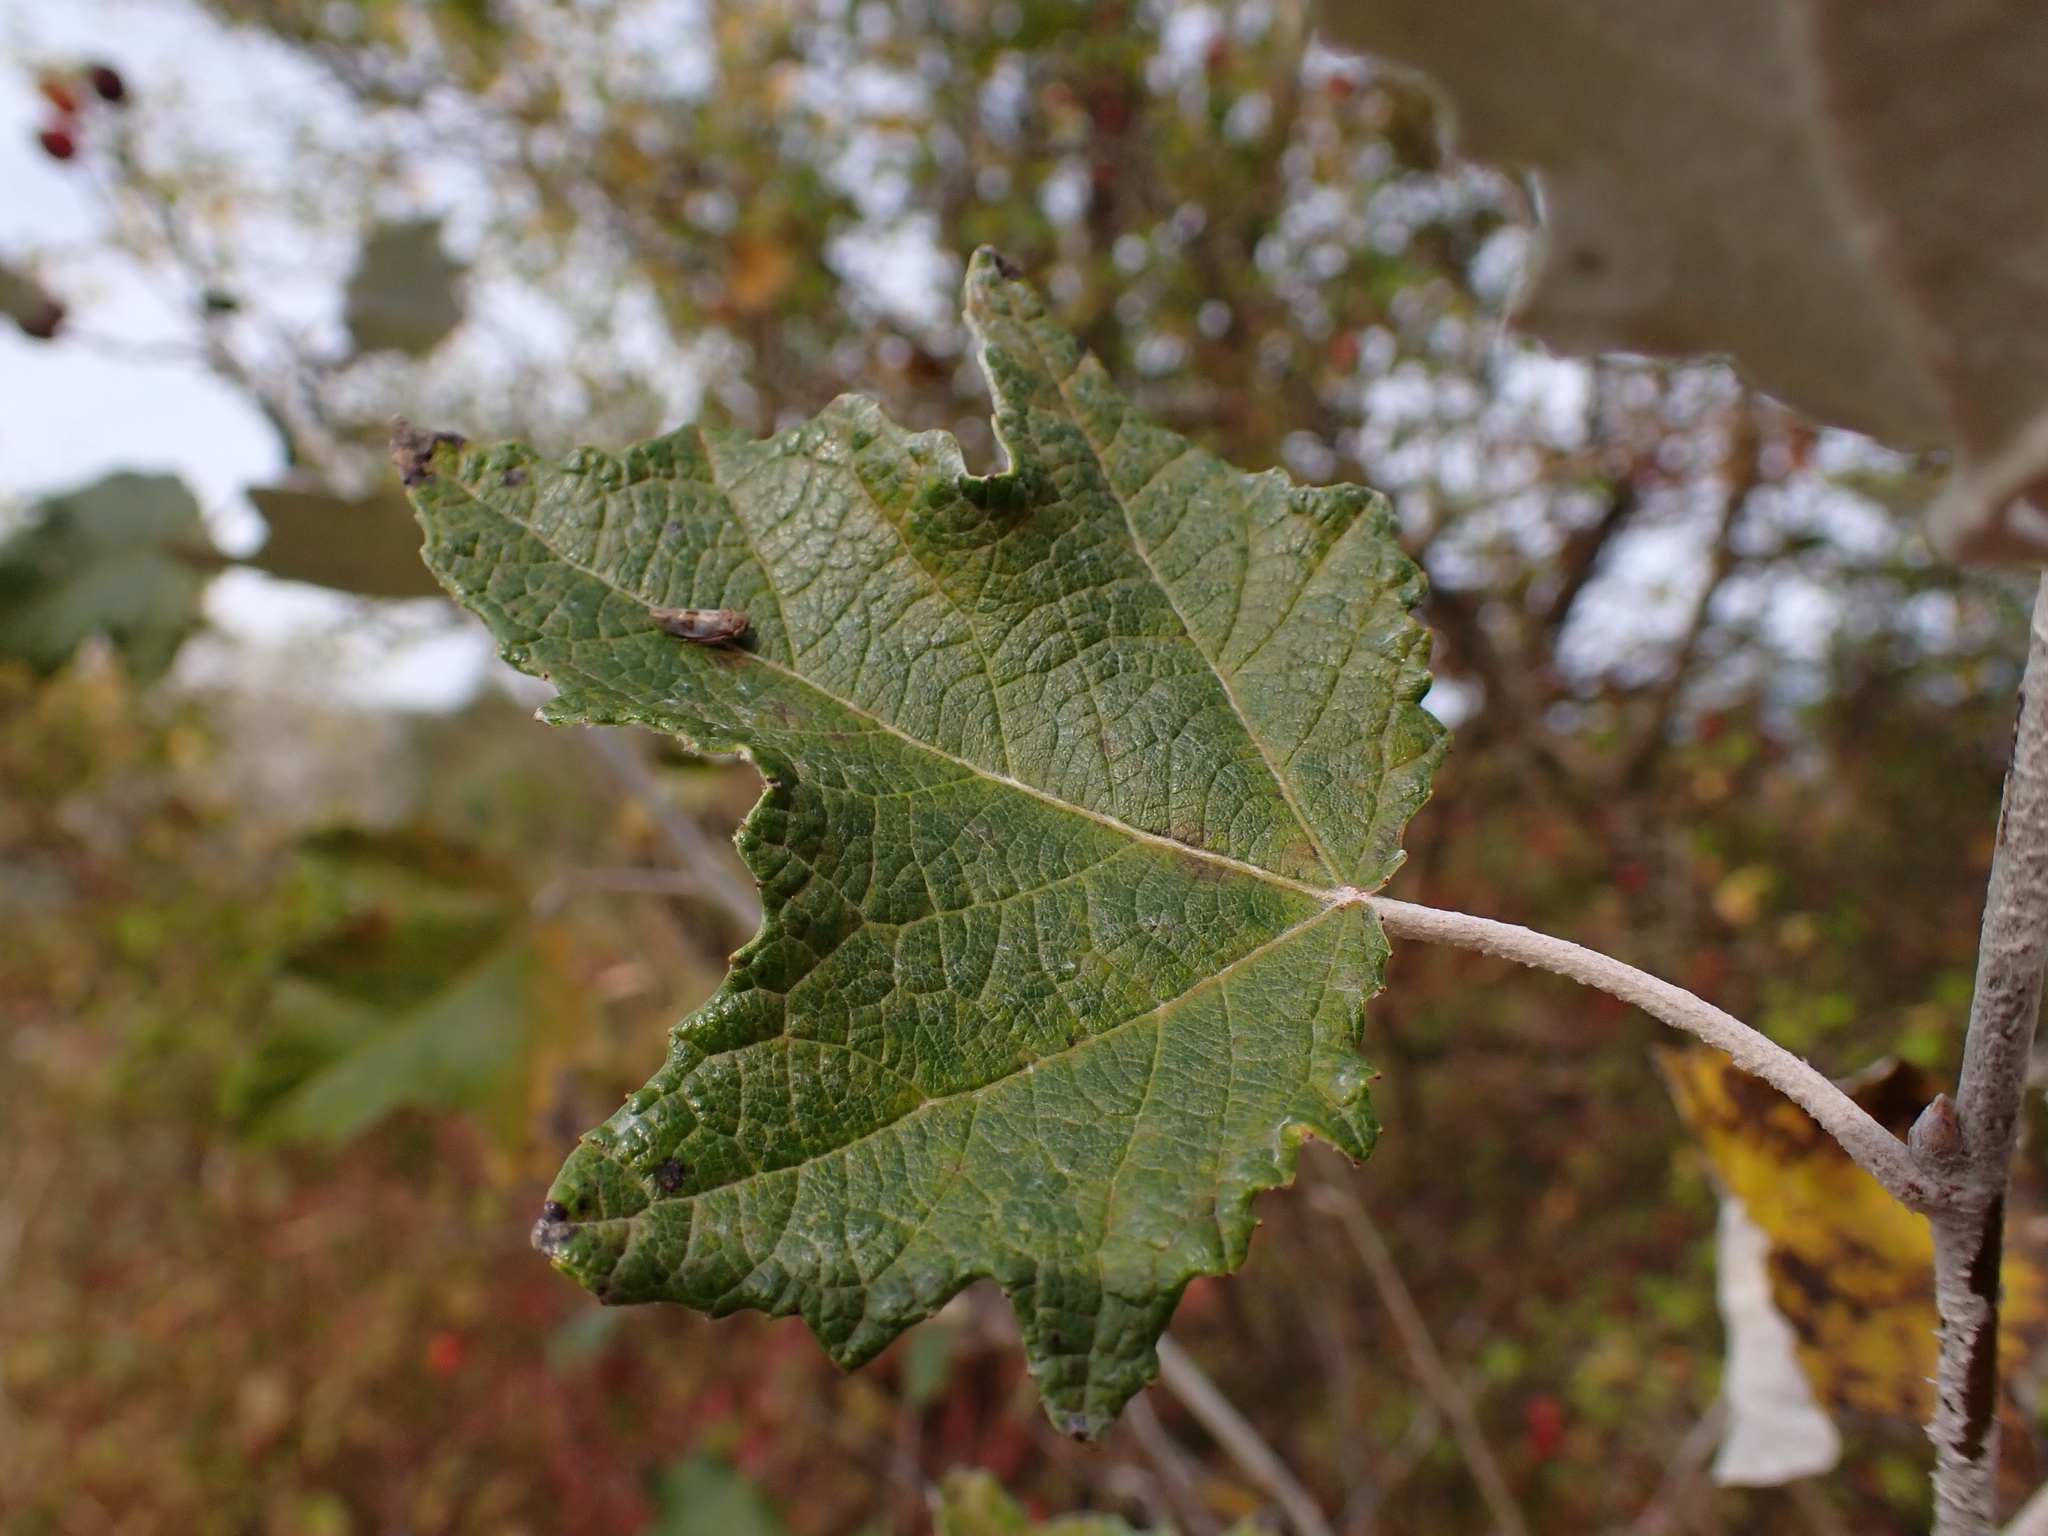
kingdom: Animalia
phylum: Arthropoda
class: Insecta
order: Hemiptera
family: Cicadellidae
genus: Tremulicerus
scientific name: Tremulicerus tremulae
